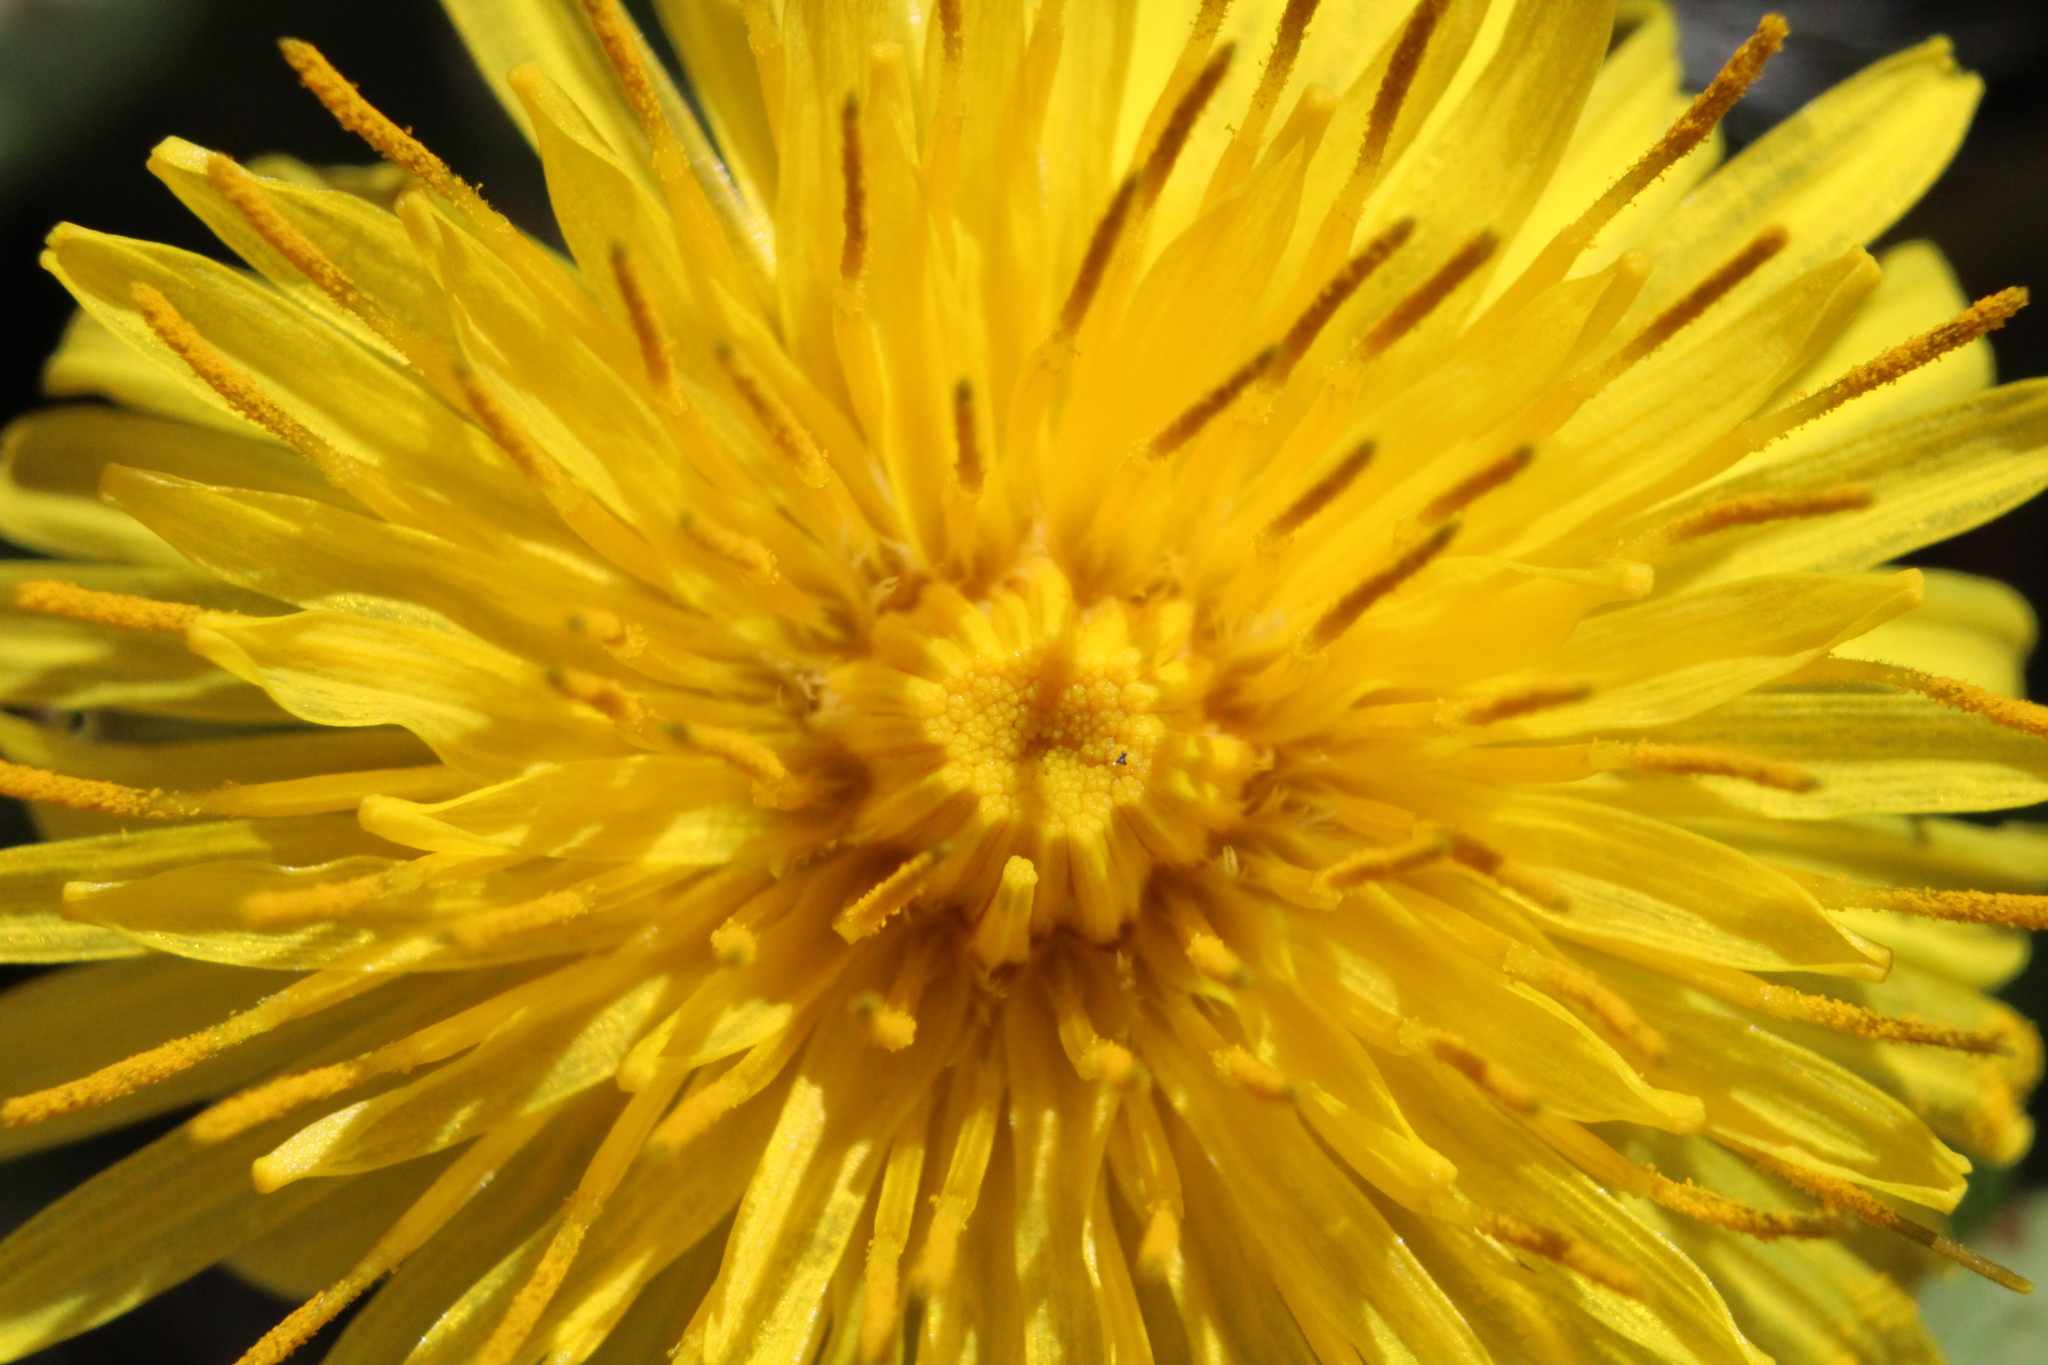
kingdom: Plantae
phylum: Tracheophyta
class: Magnoliopsida
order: Asterales
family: Asteraceae
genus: Taraxacum
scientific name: Taraxacum
